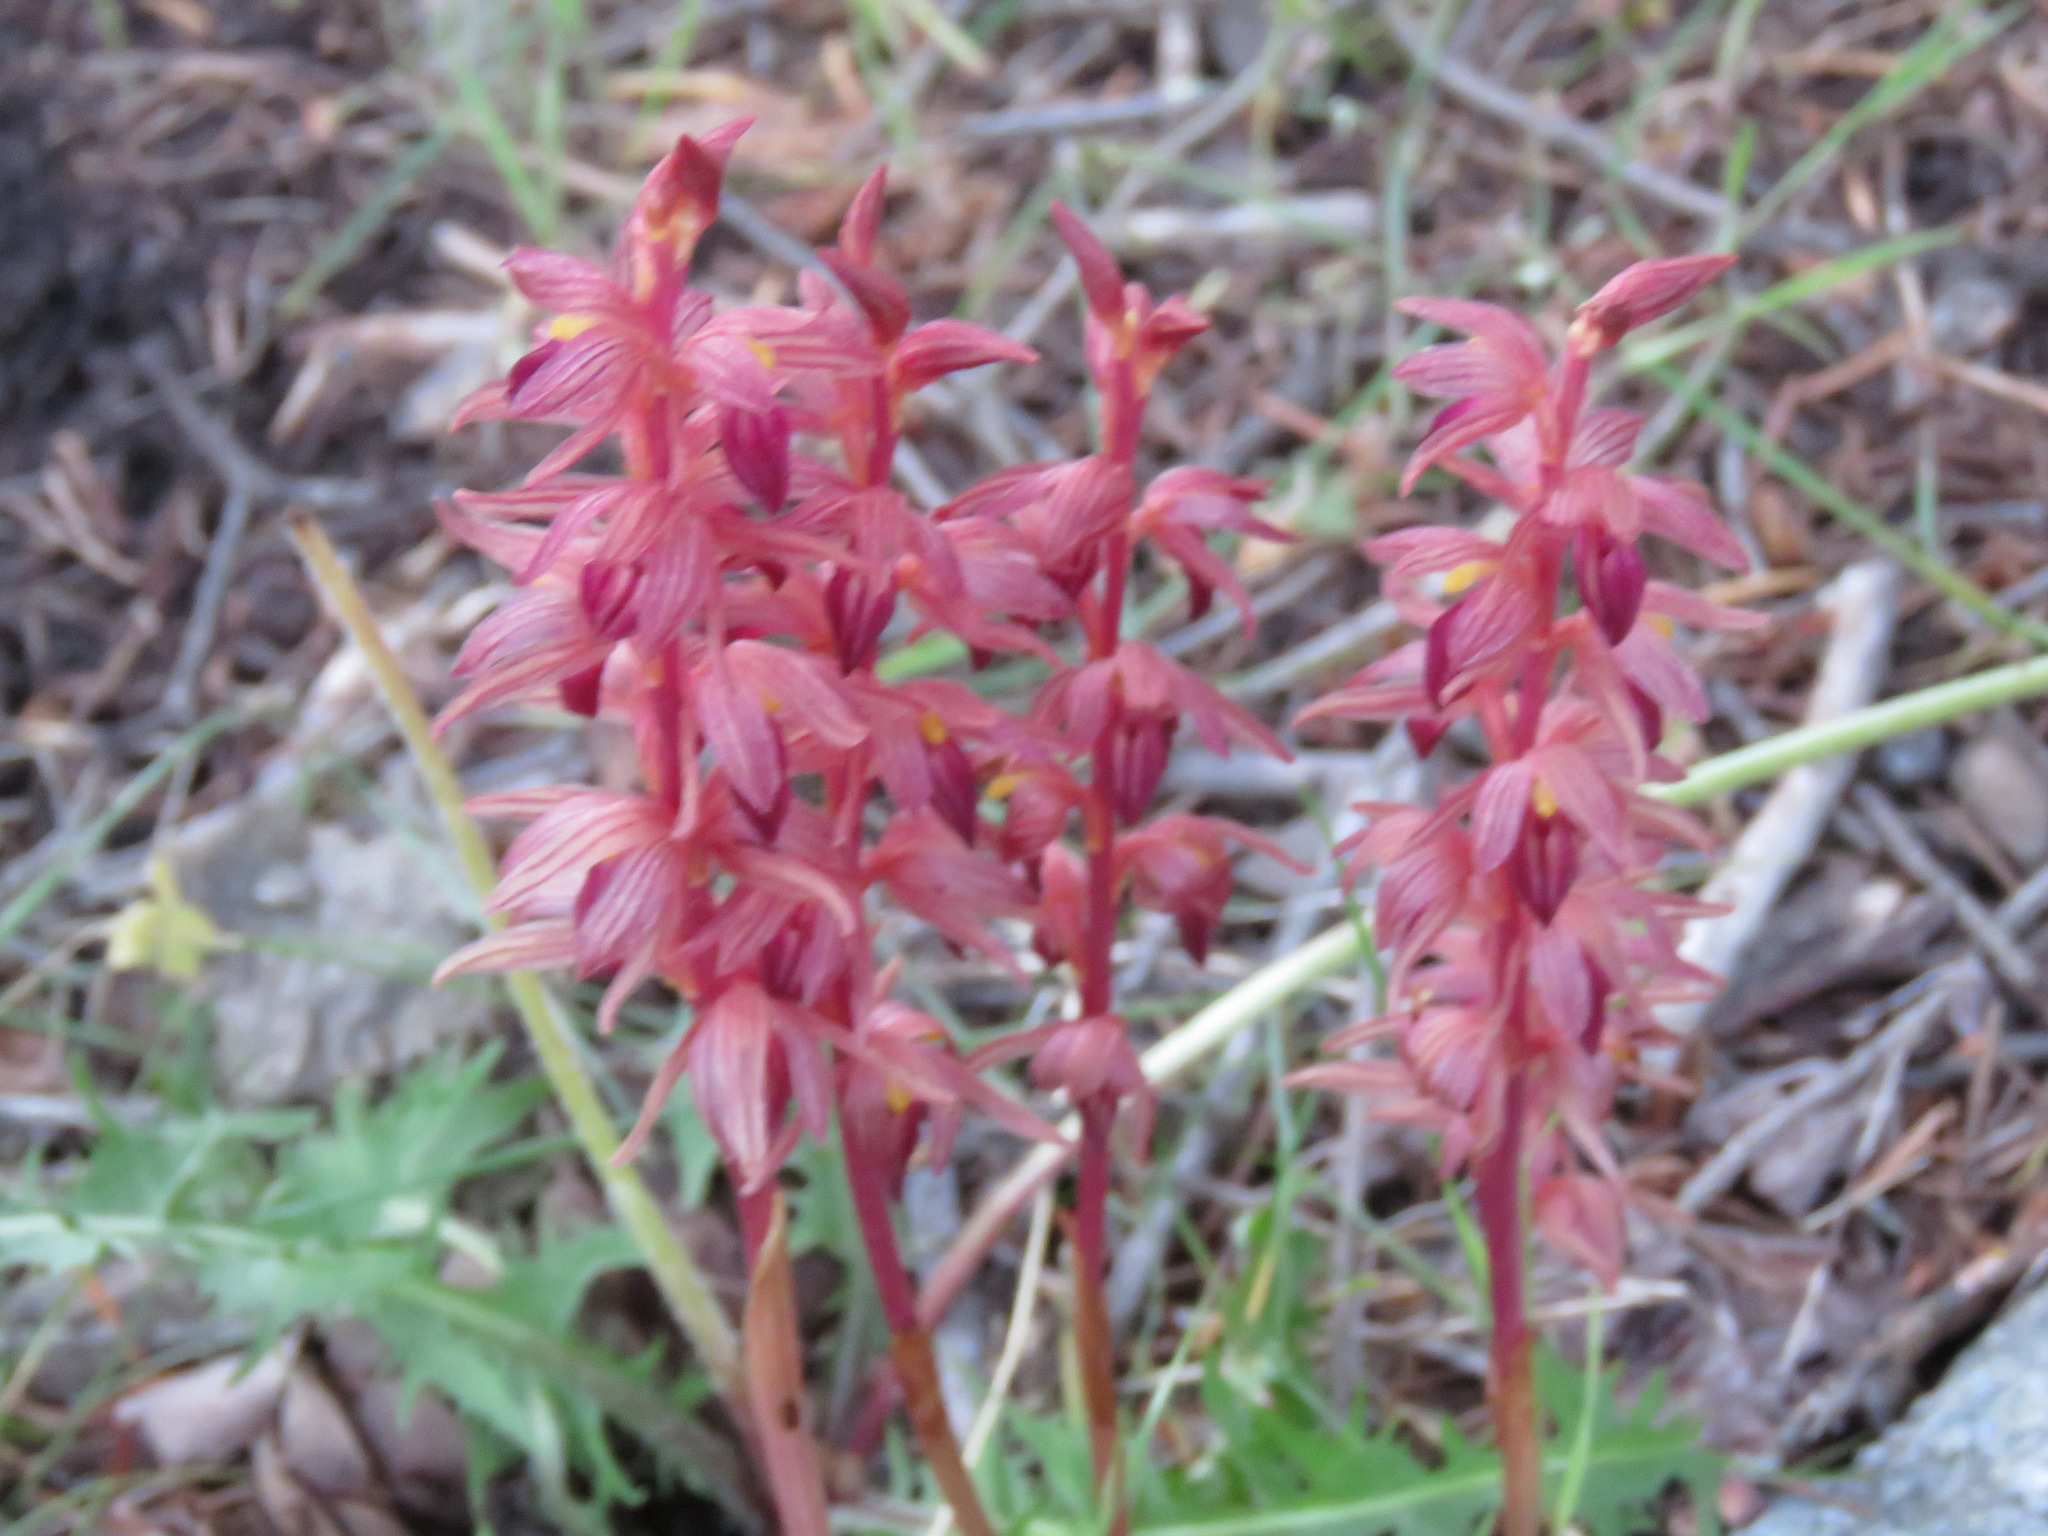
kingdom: Plantae
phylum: Tracheophyta
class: Liliopsida
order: Asparagales
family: Orchidaceae
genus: Corallorhiza
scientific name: Corallorhiza striata
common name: Hooded coralroot
